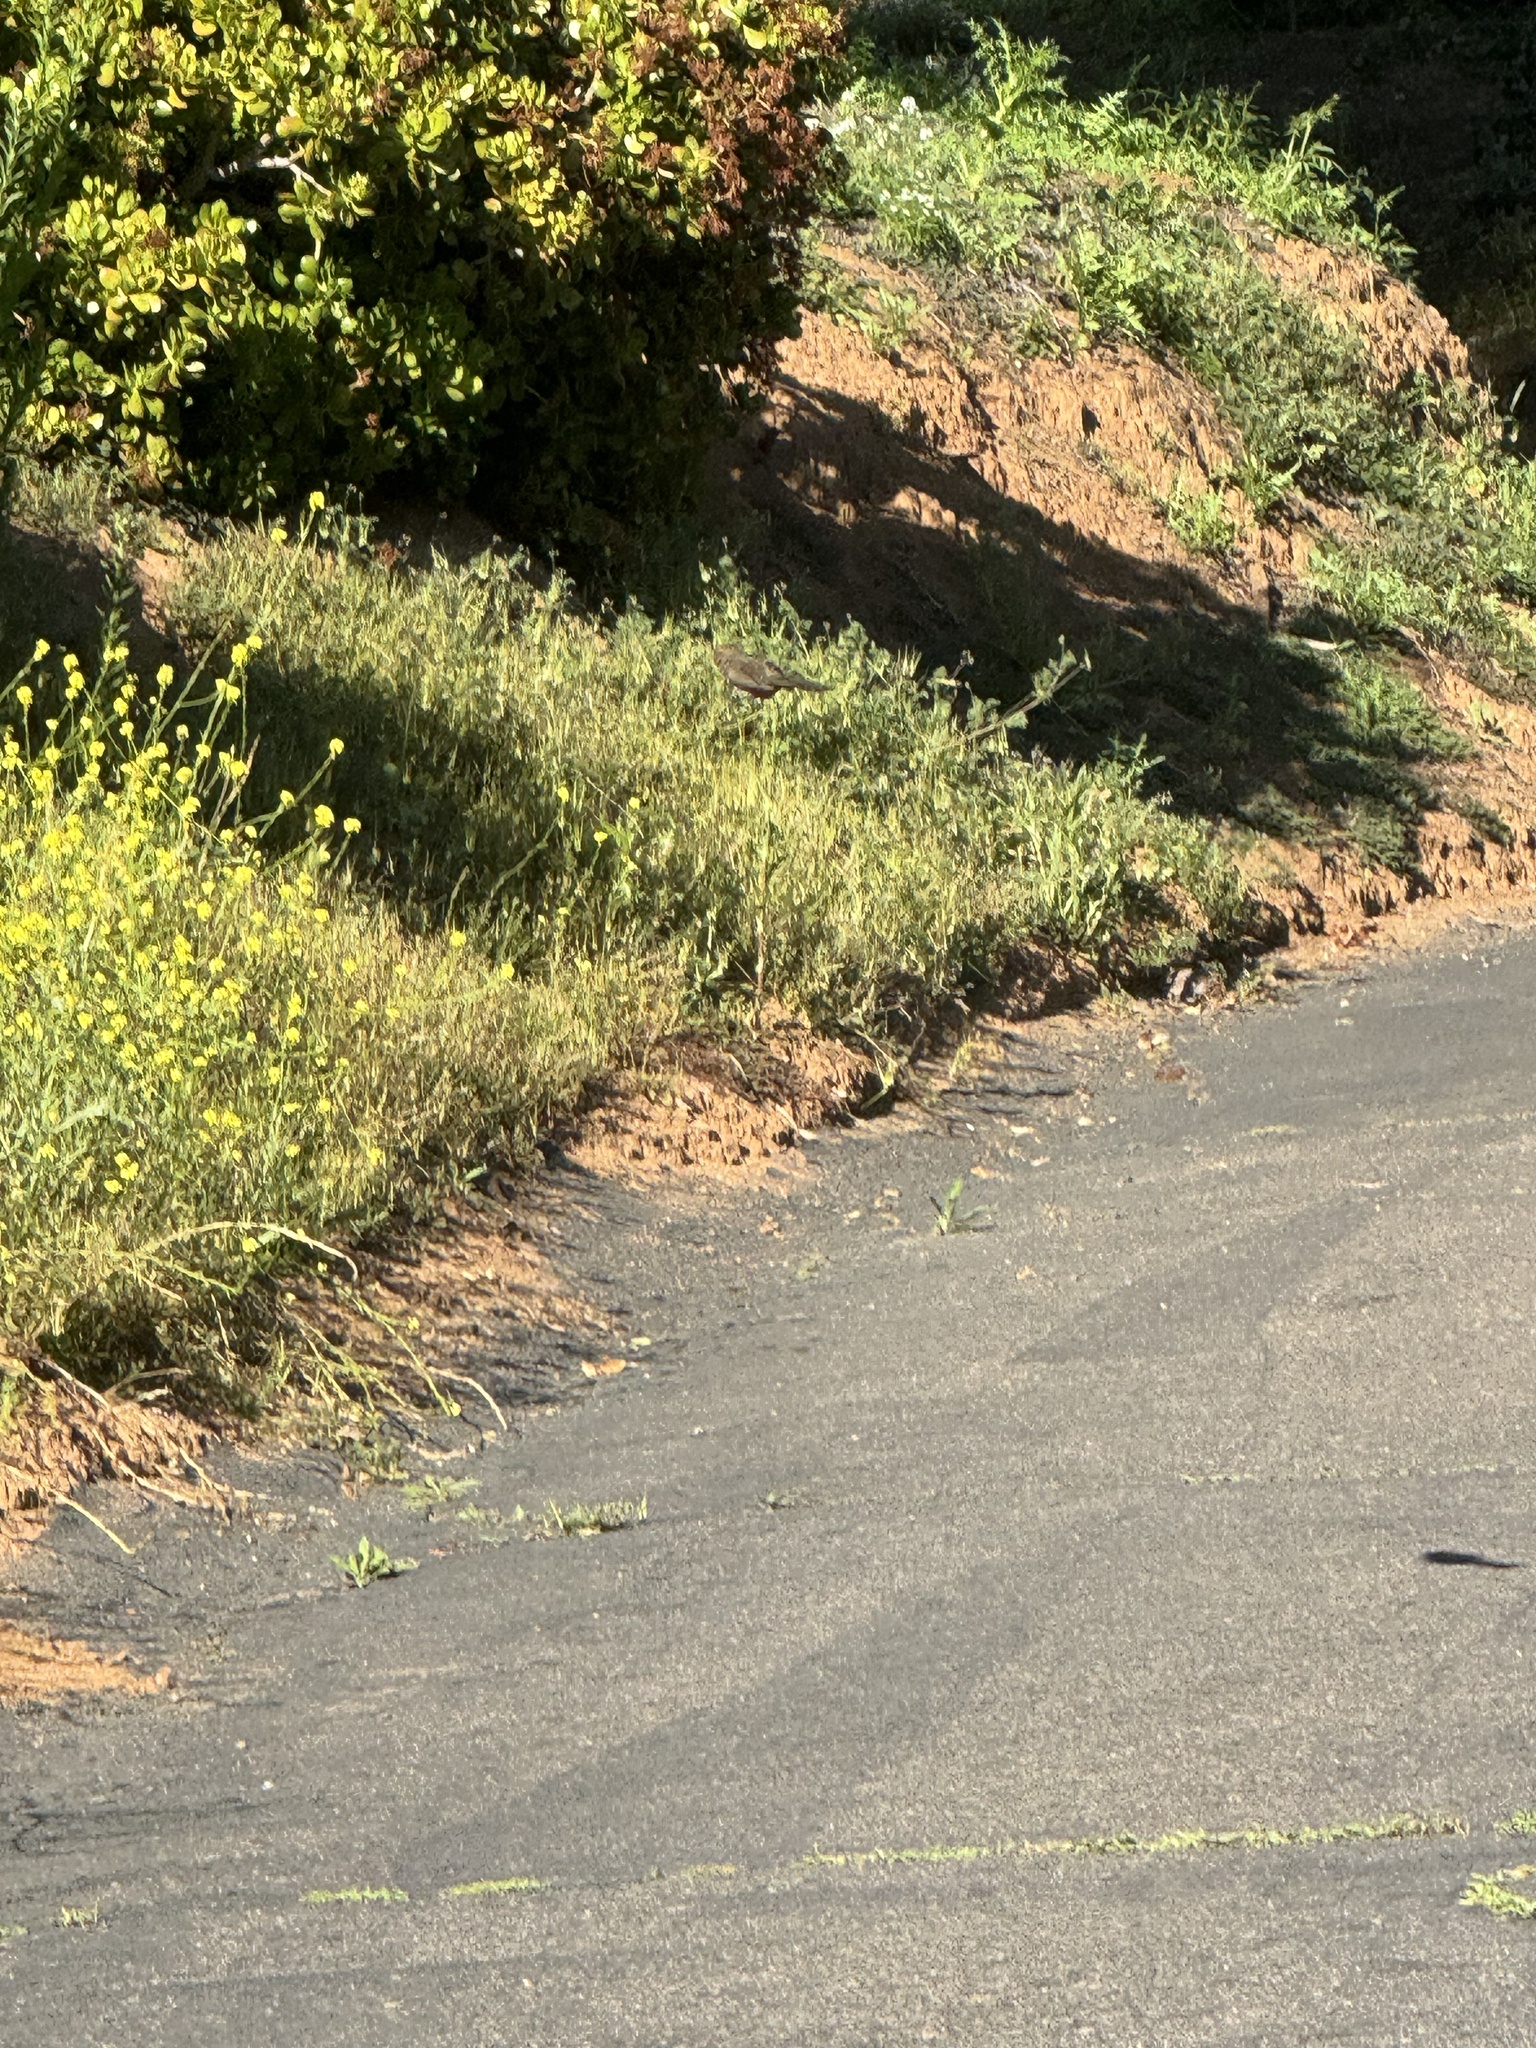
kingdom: Animalia
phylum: Chordata
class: Aves
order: Passeriformes
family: Passerellidae
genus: Melozone
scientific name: Melozone crissalis
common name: California towhee
